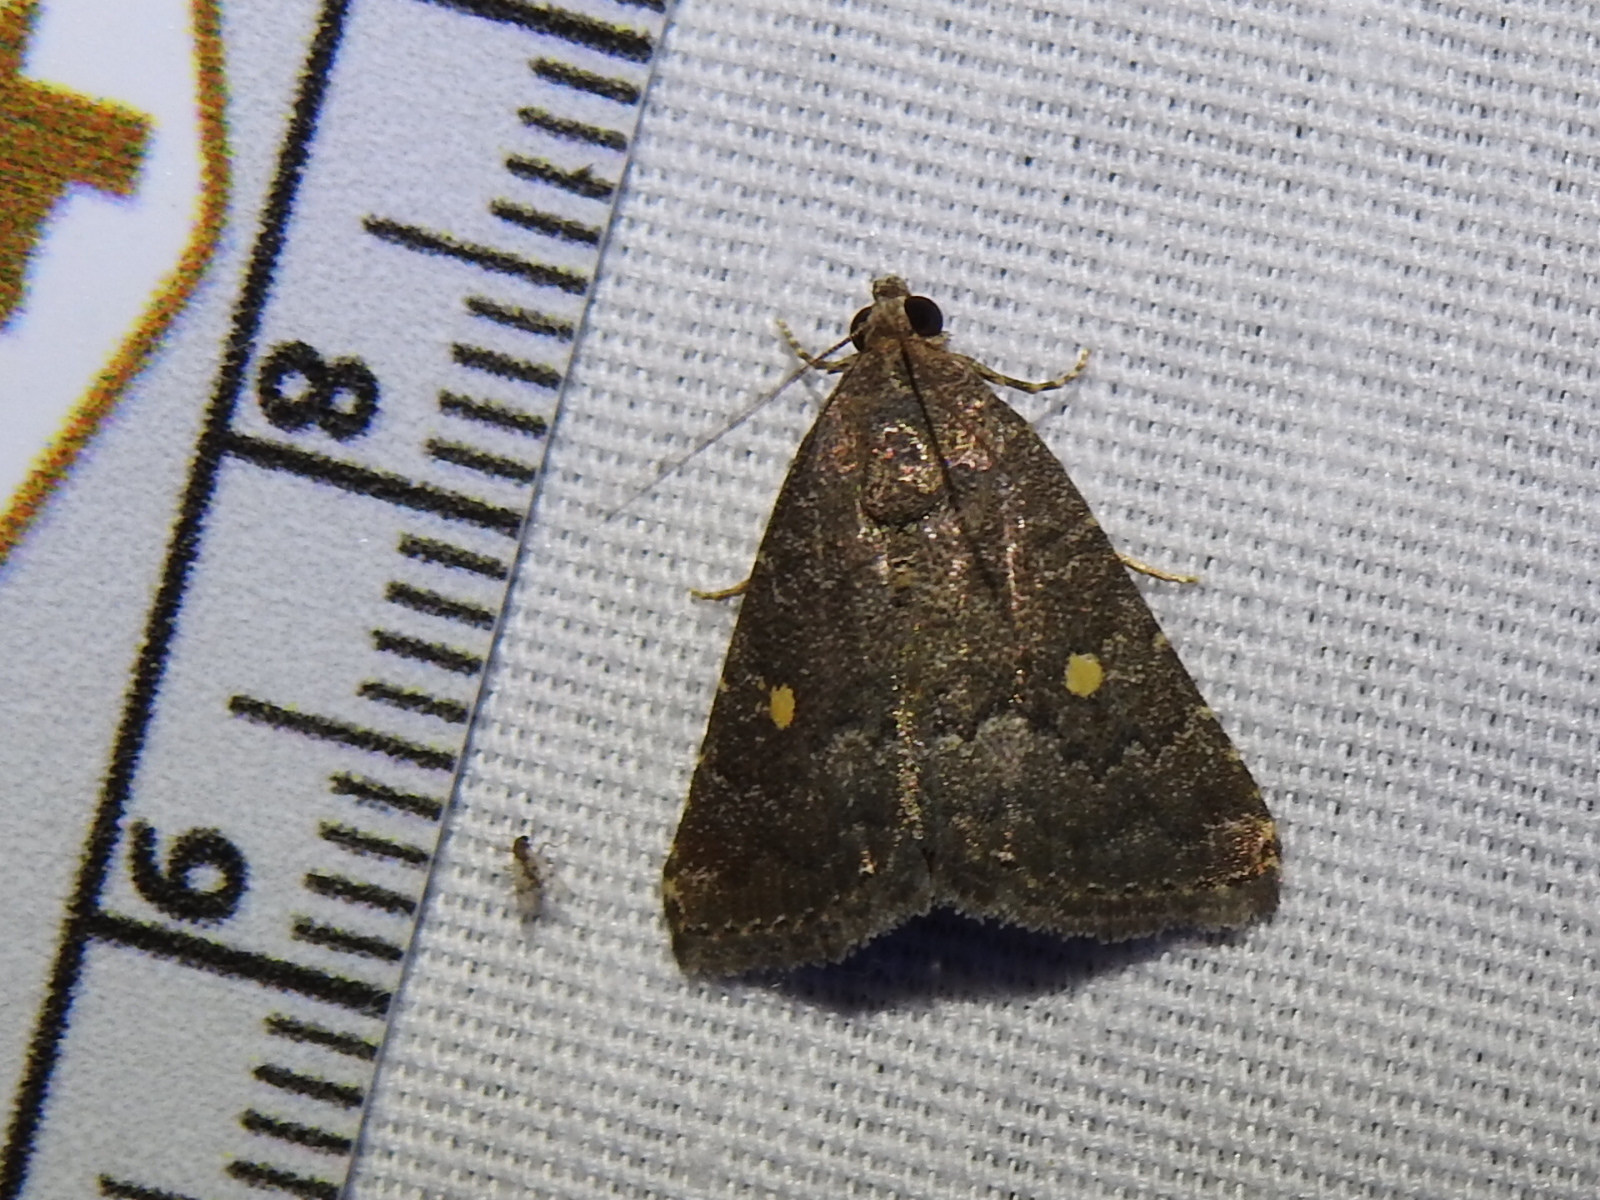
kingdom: Animalia
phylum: Arthropoda
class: Insecta
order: Lepidoptera
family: Noctuidae
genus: Amyna
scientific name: Amyna stricta
